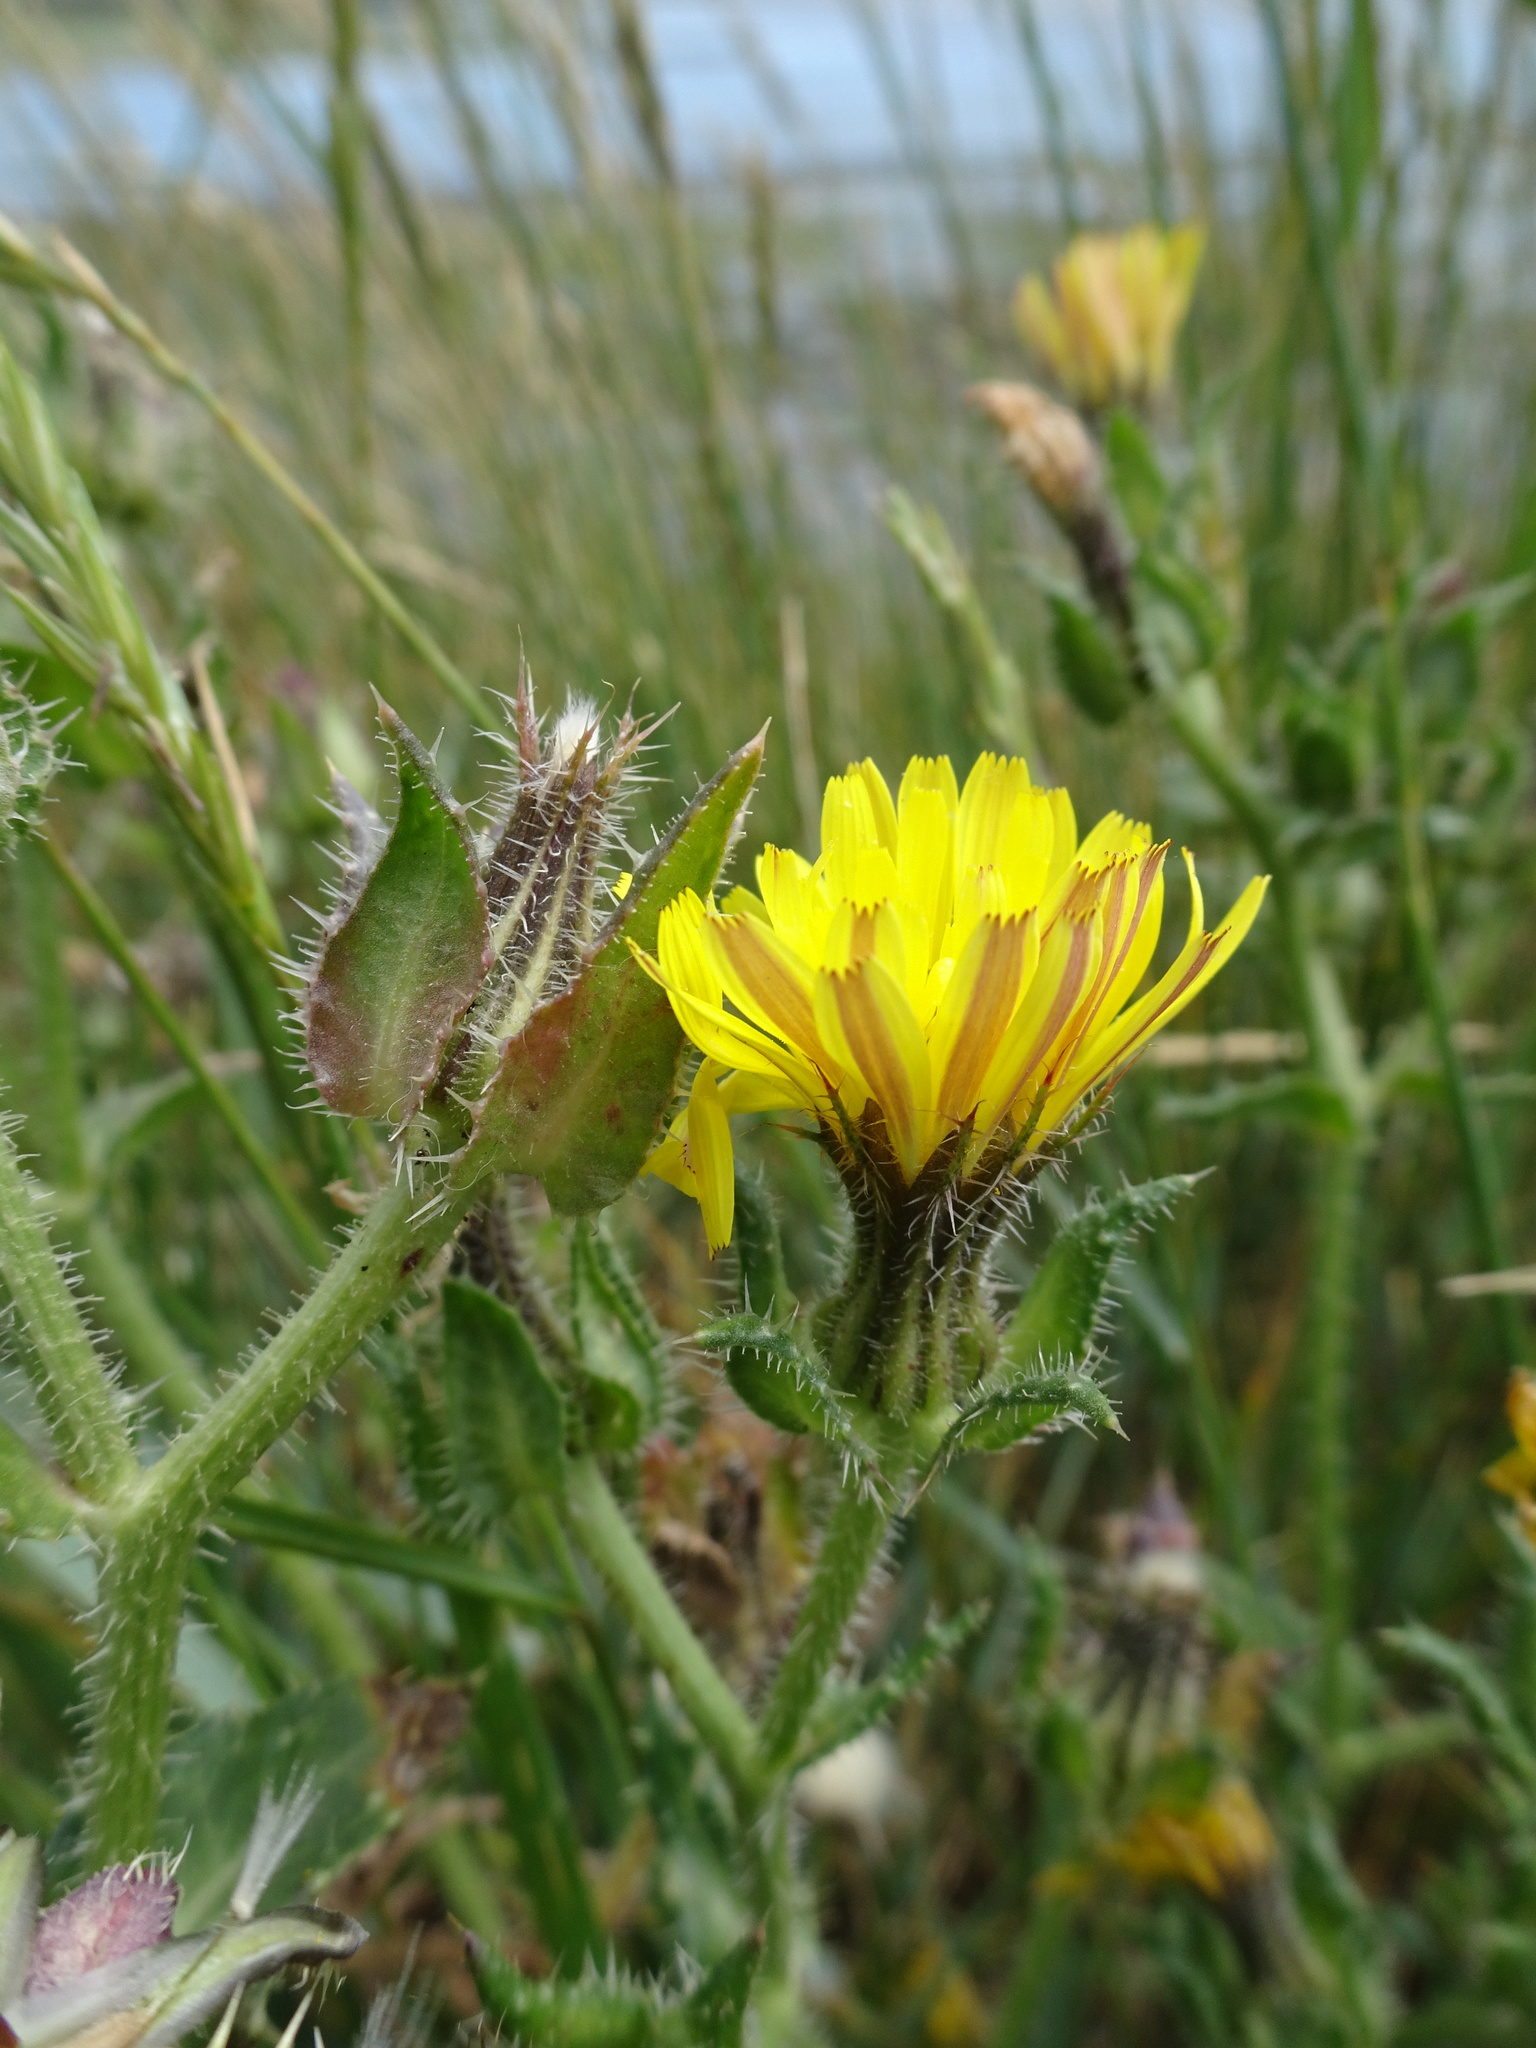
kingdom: Plantae
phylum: Tracheophyta
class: Magnoliopsida
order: Asterales
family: Asteraceae
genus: Helminthotheca
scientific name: Helminthotheca echioides
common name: Ox-tongue
